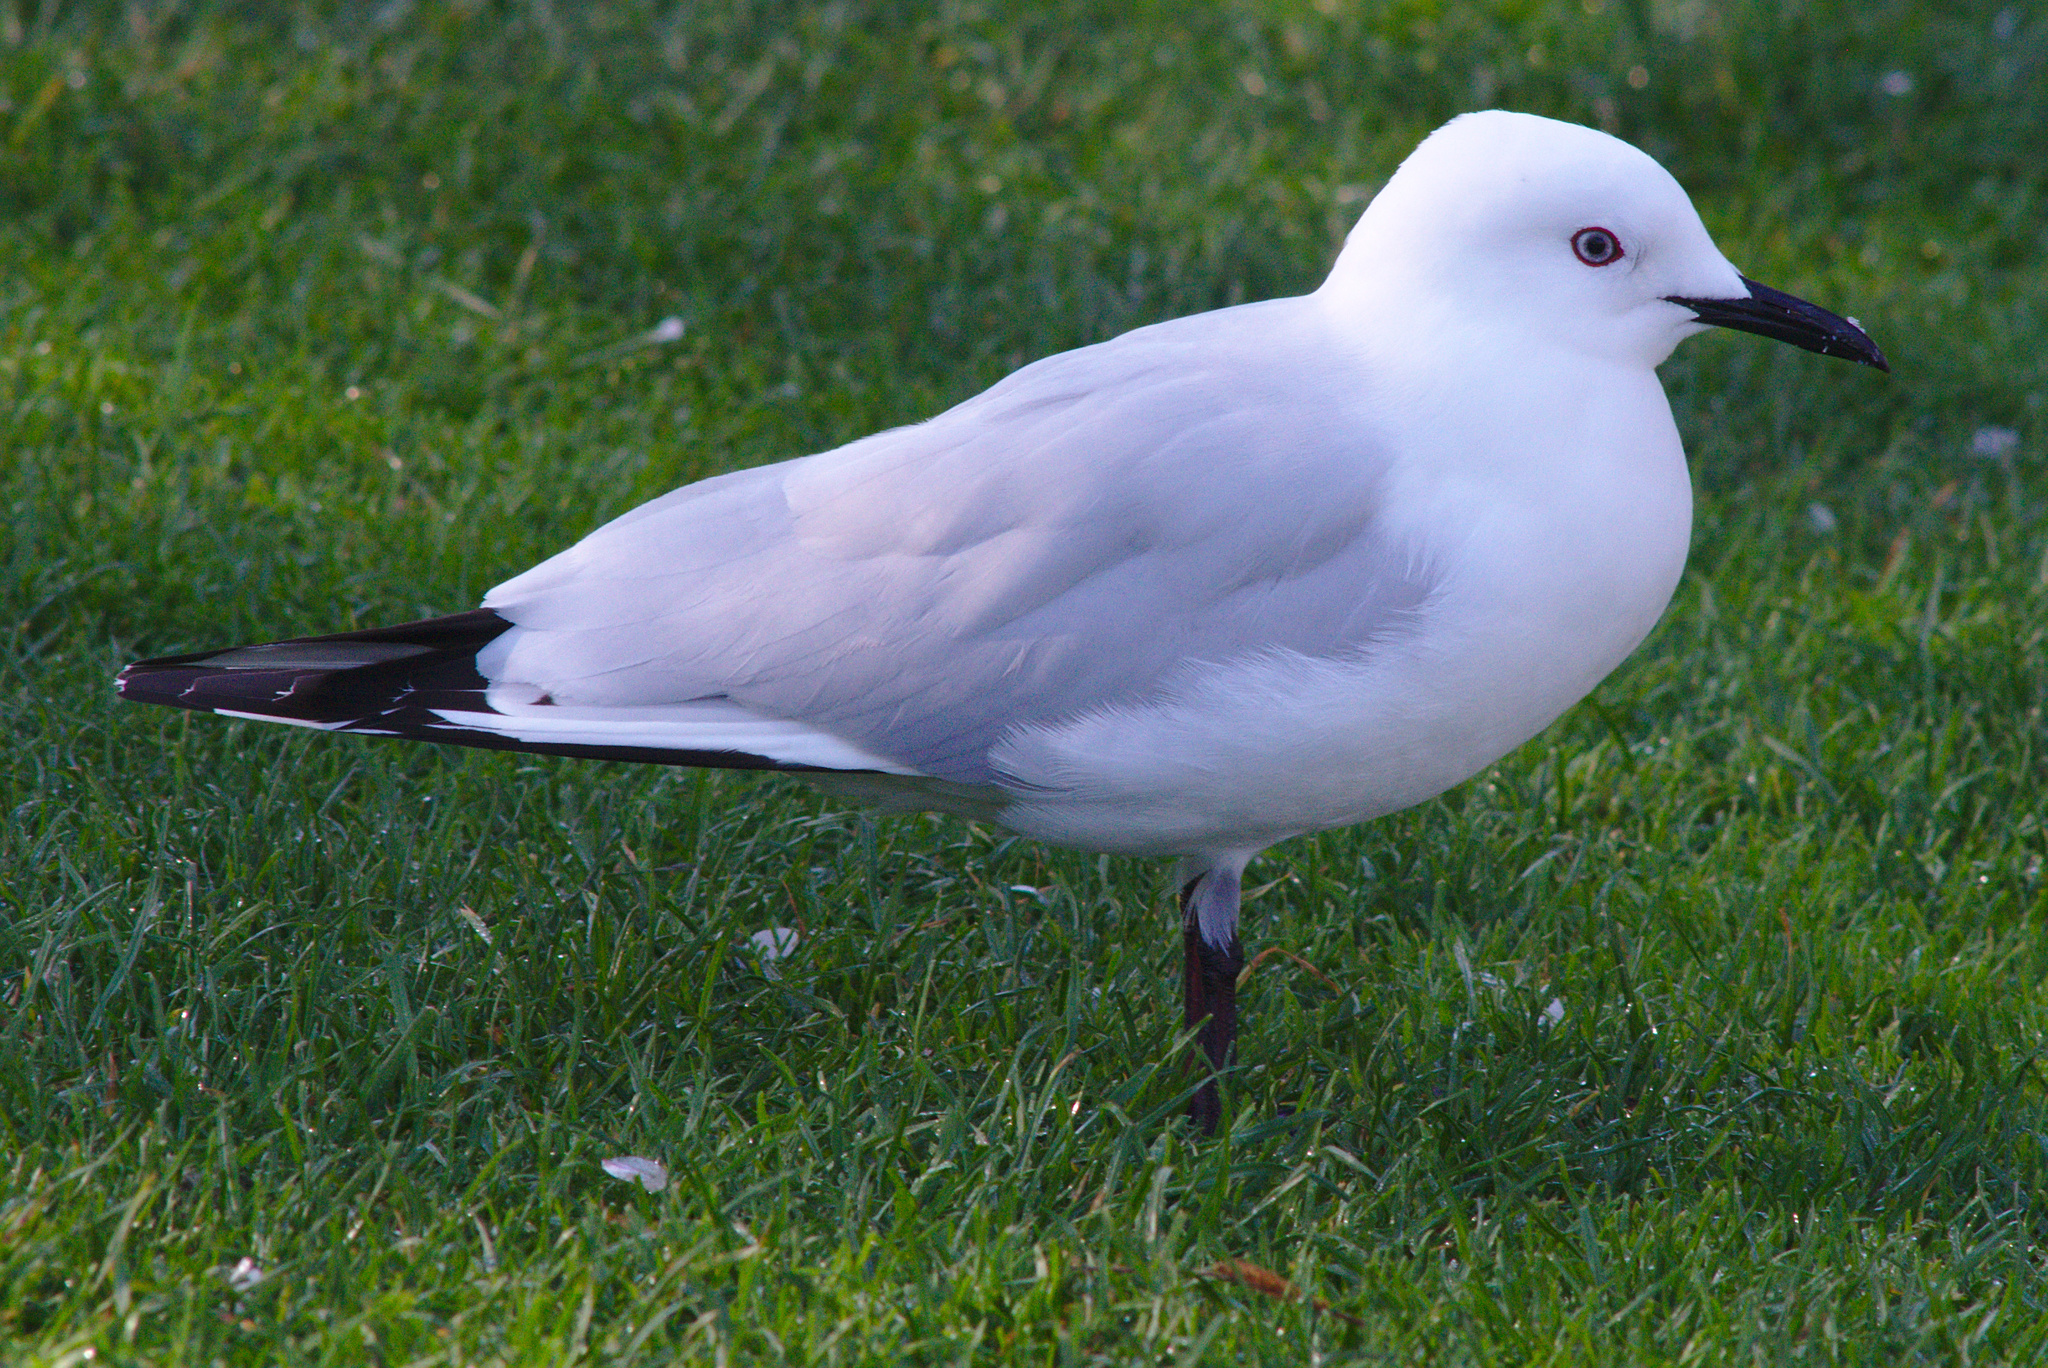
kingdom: Animalia
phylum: Chordata
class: Aves
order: Charadriiformes
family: Laridae
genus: Chroicocephalus
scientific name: Chroicocephalus bulleri
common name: Black-billed gull
